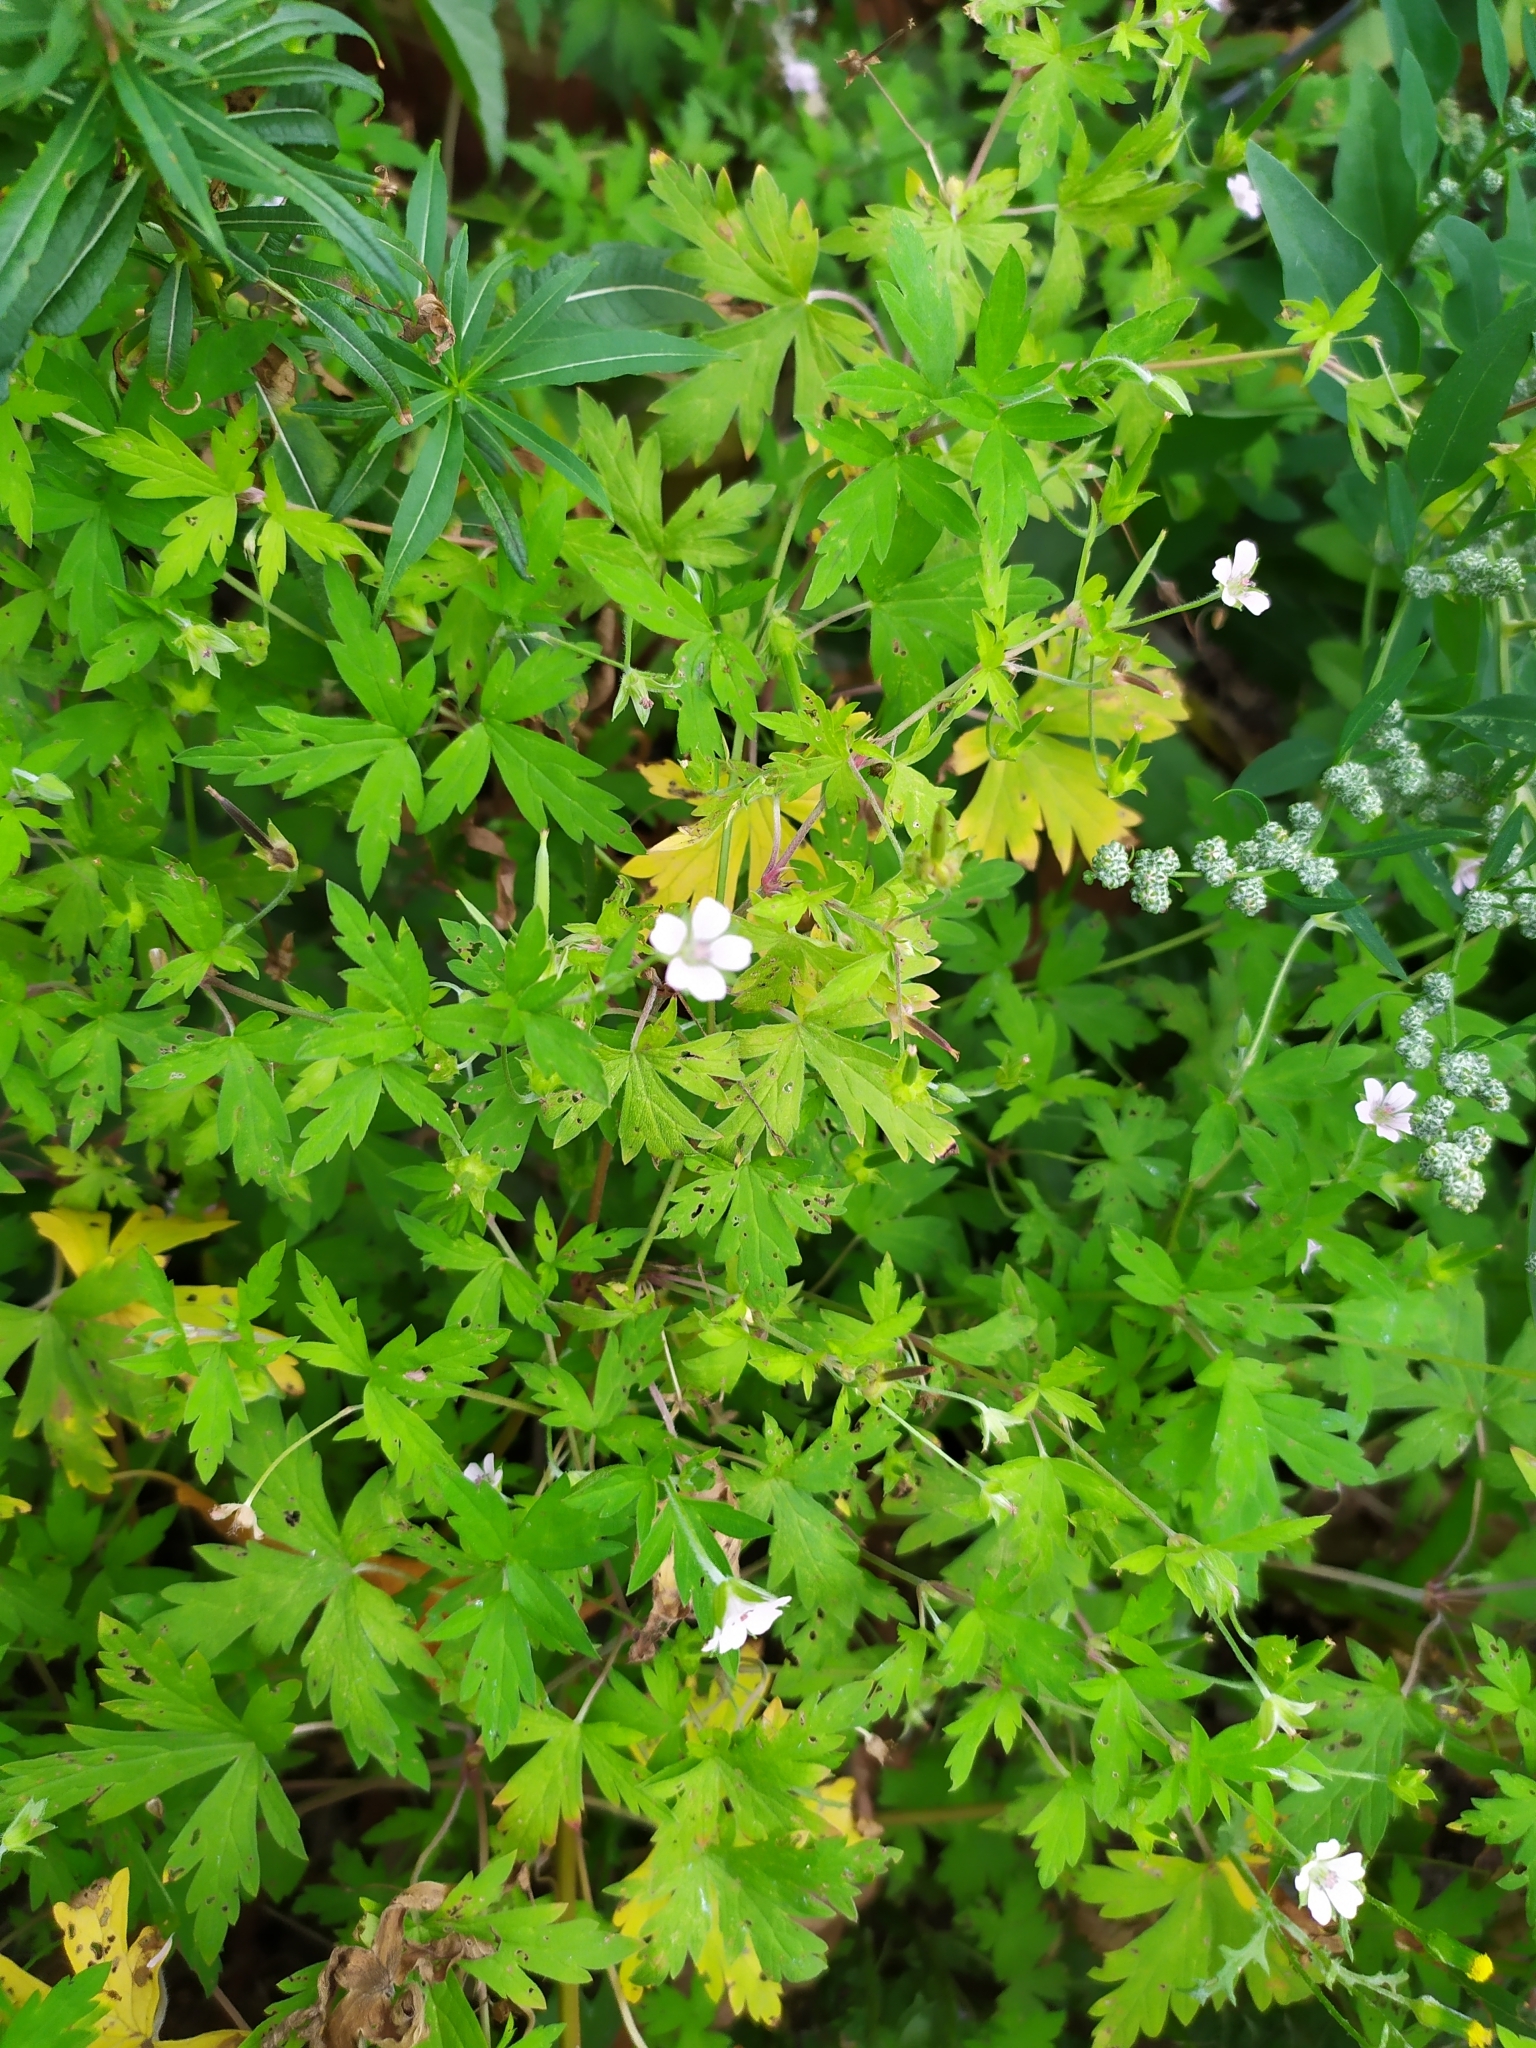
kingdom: Plantae
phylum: Tracheophyta
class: Magnoliopsida
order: Geraniales
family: Geraniaceae
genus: Geranium
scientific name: Geranium sibiricum
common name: Siberian crane's-bill
